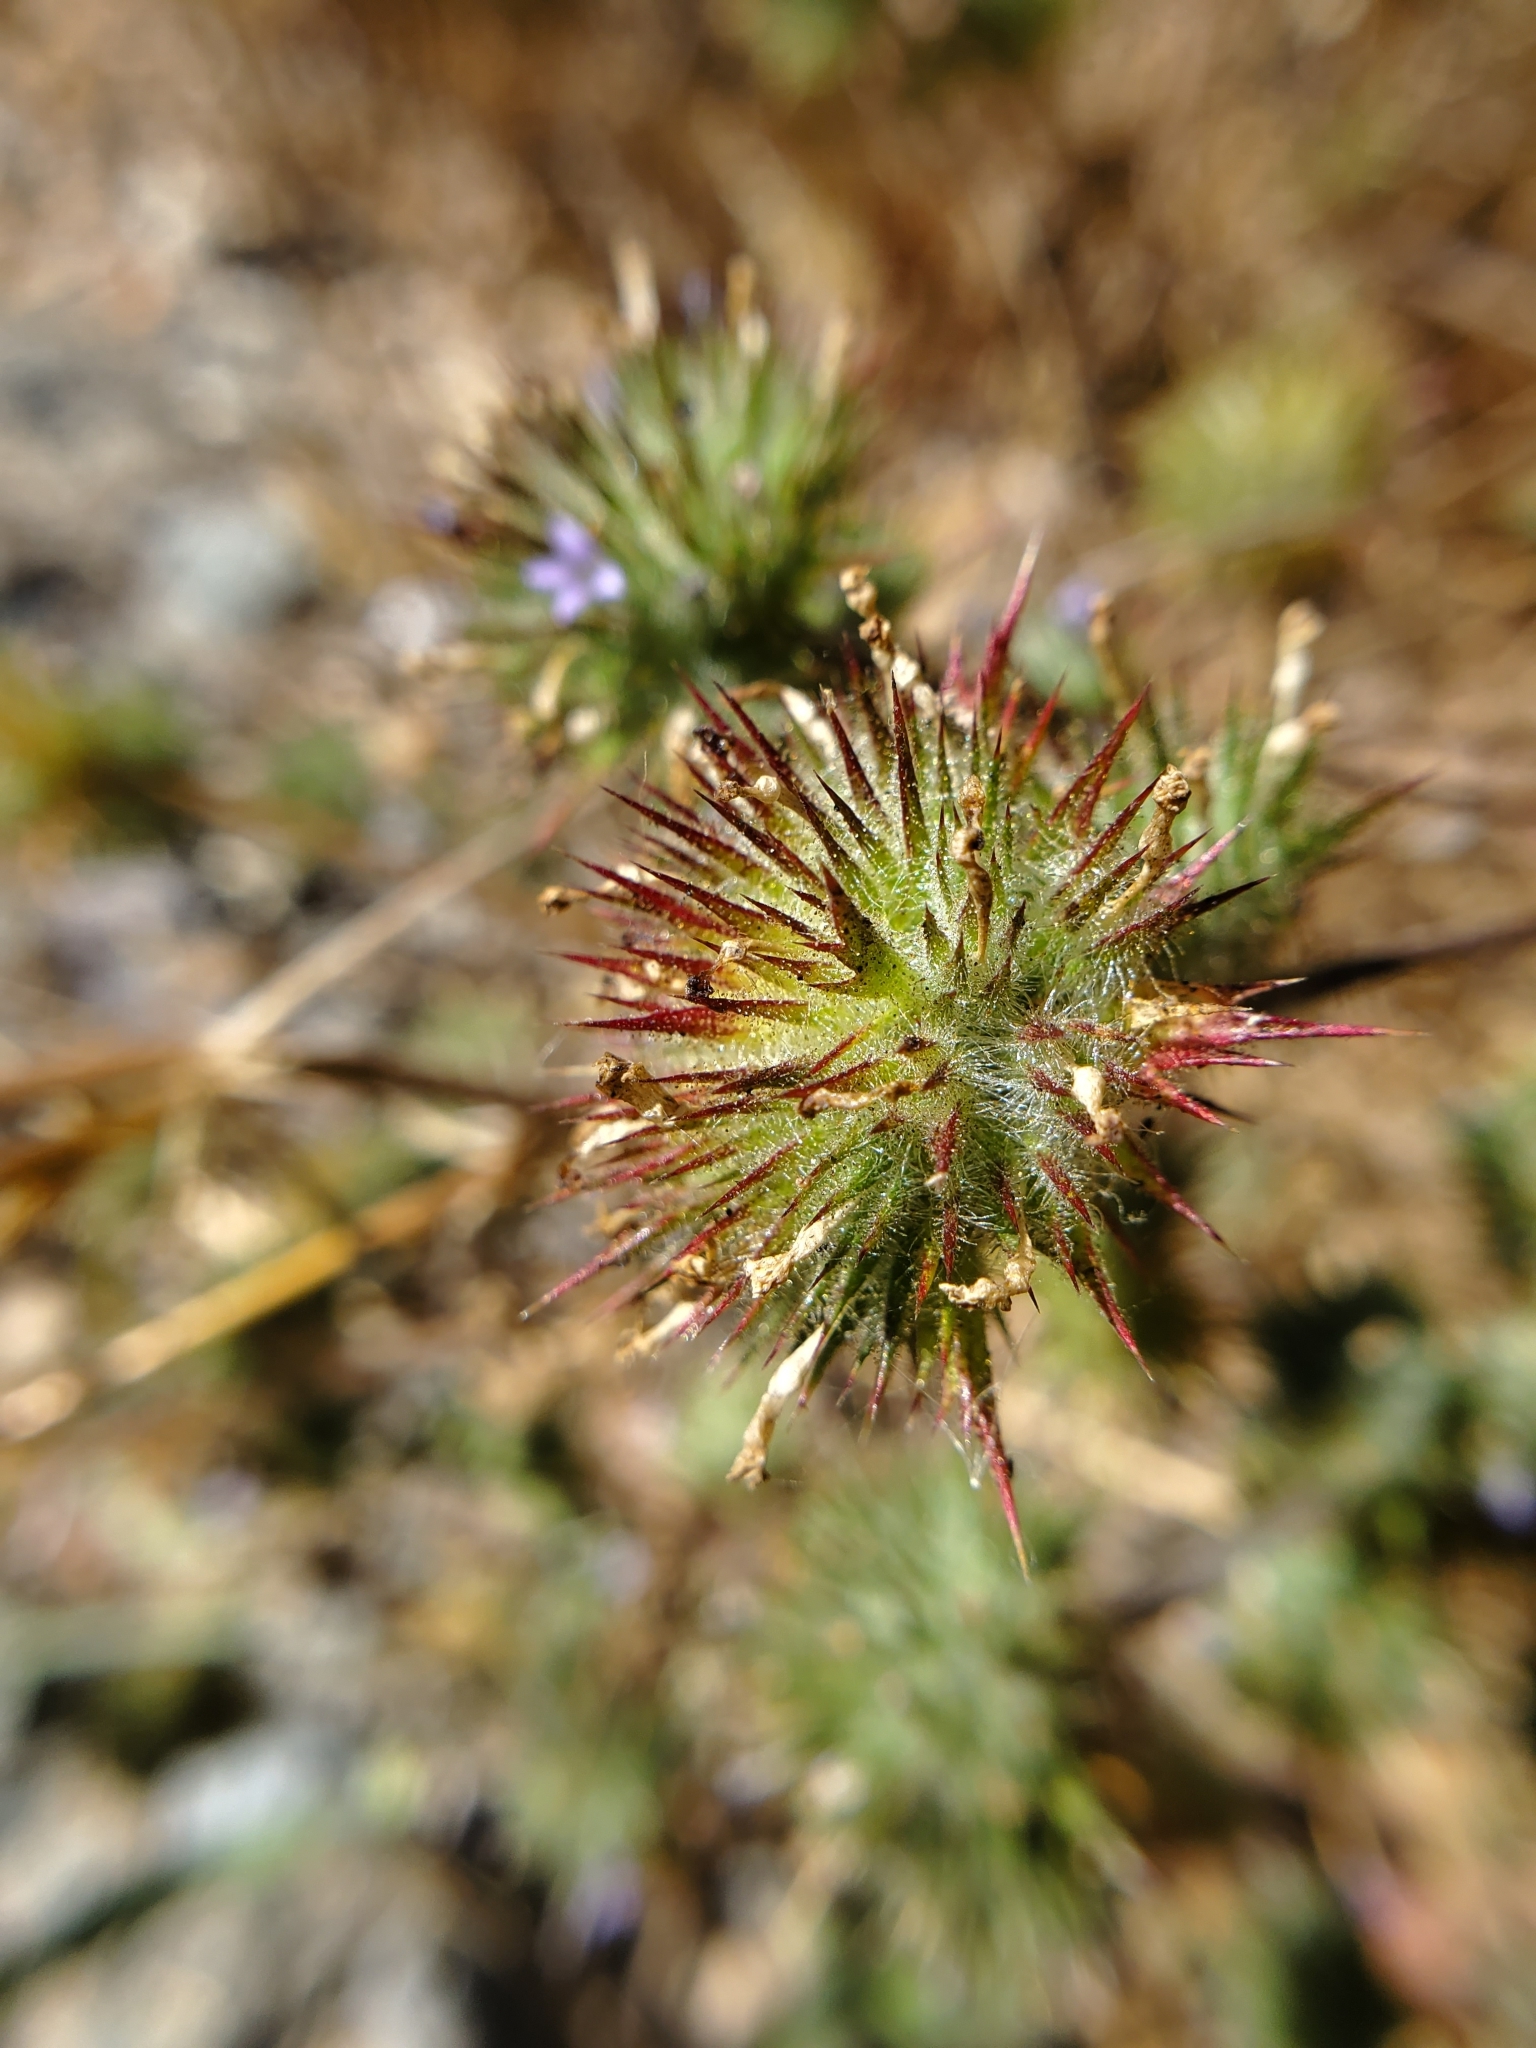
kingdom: Plantae
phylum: Tracheophyta
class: Magnoliopsida
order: Ericales
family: Polemoniaceae
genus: Navarretia
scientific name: Navarretia squarrosa
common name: Skunkweed
